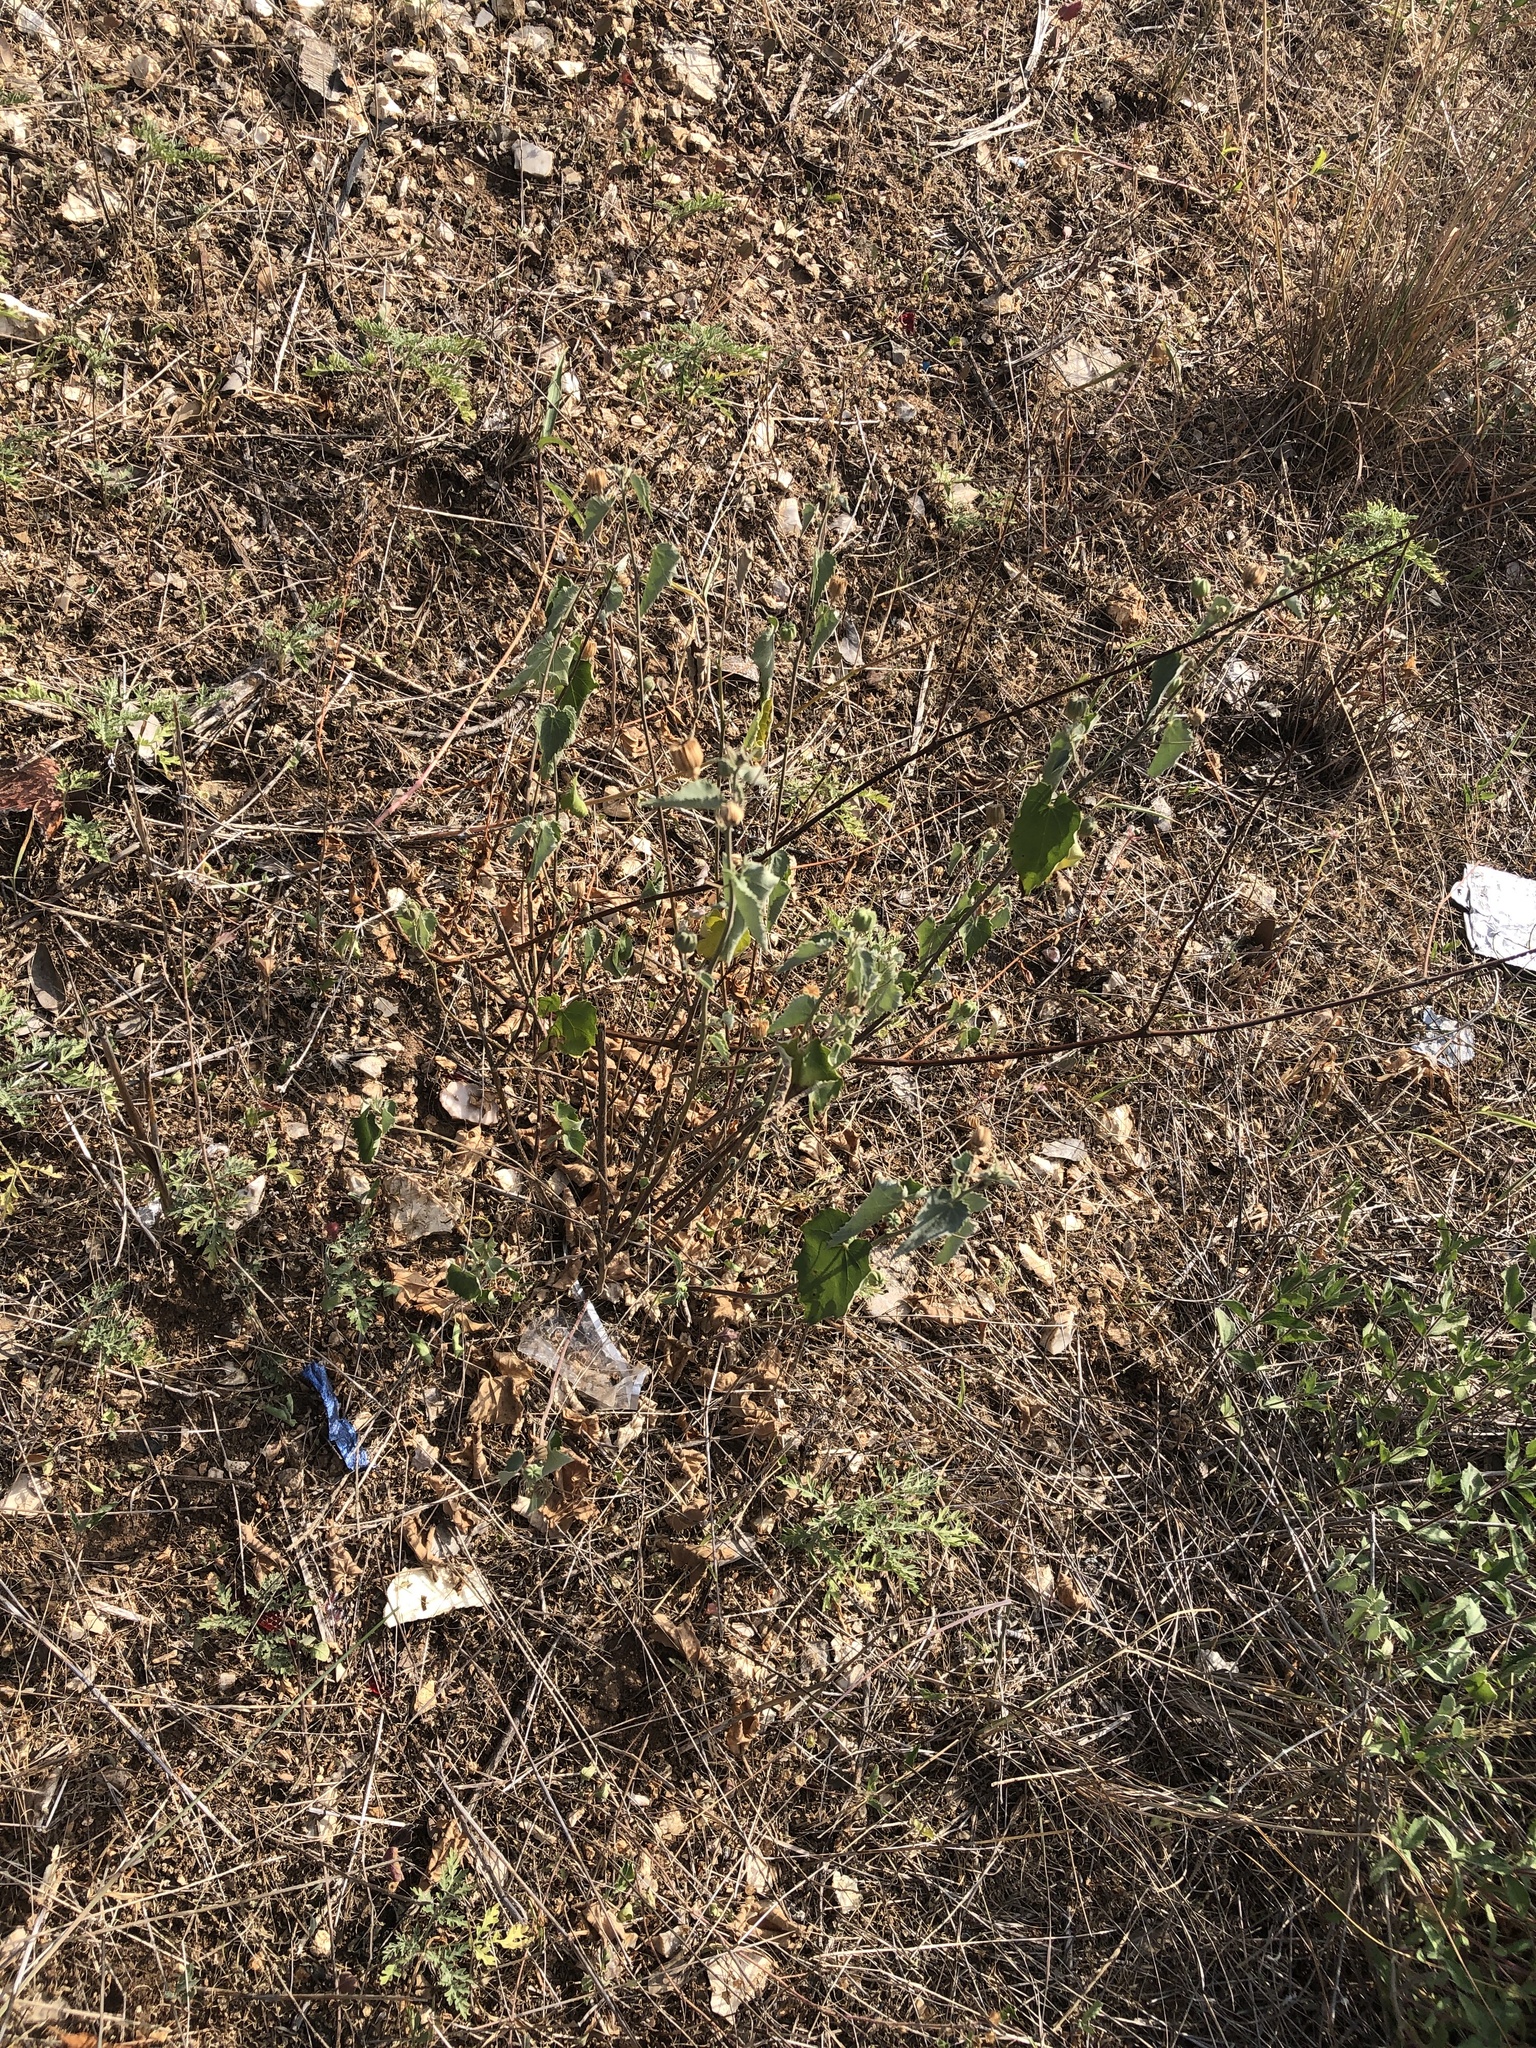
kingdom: Plantae
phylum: Tracheophyta
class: Magnoliopsida
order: Malvales
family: Malvaceae
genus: Abutilon
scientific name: Abutilon fruticosum
